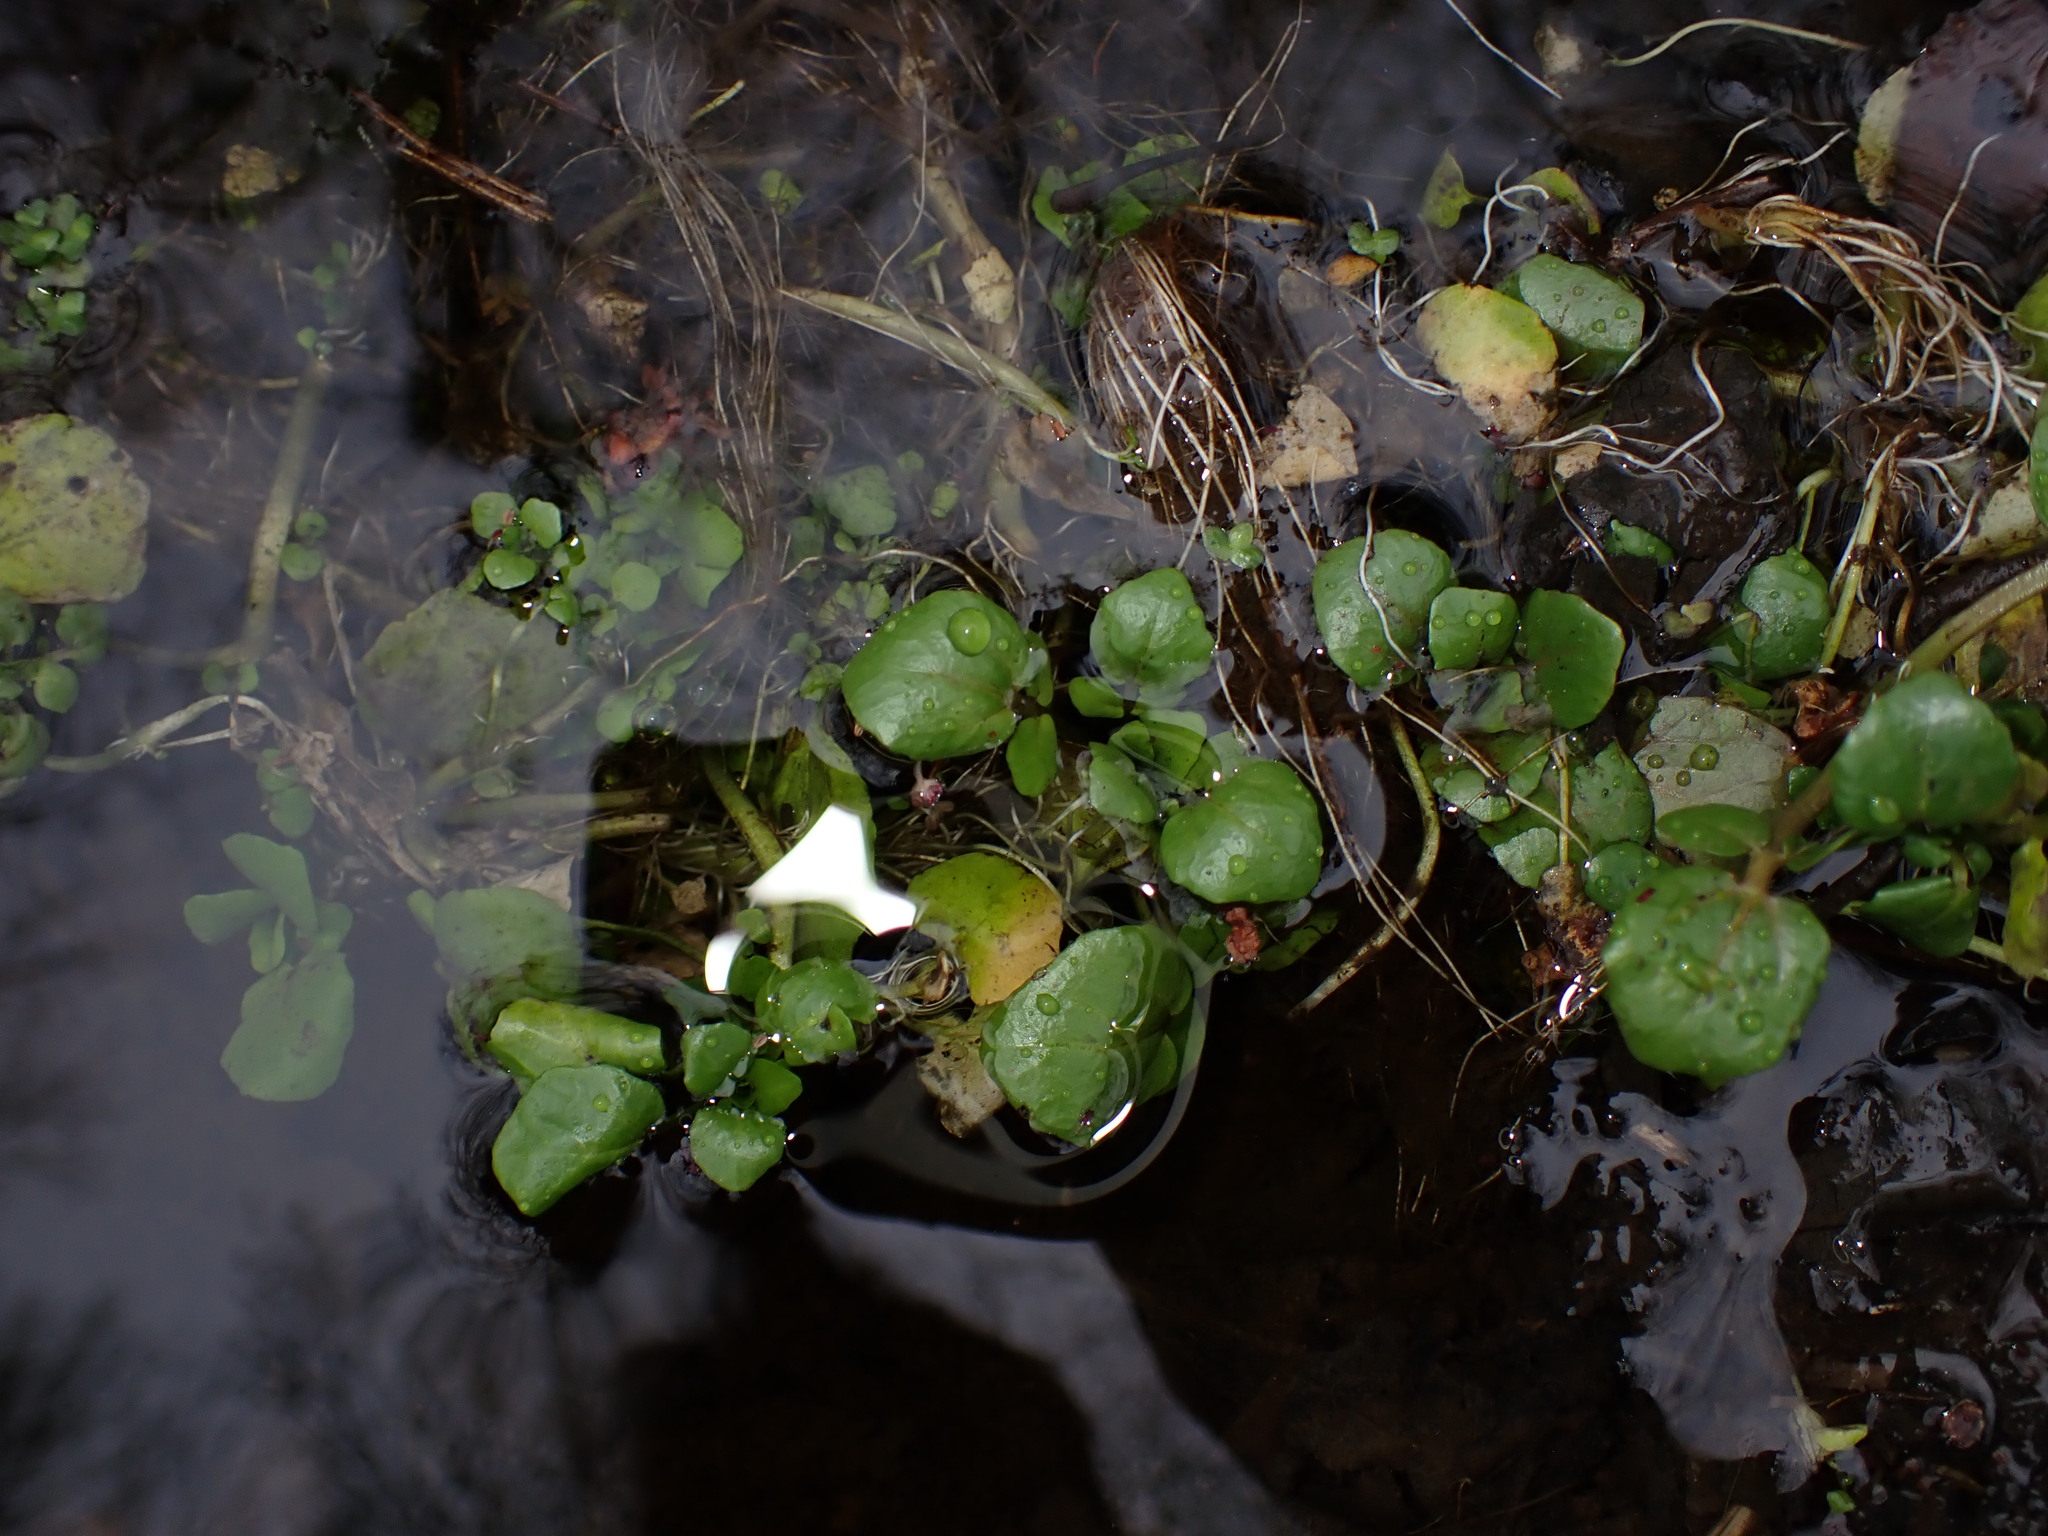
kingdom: Plantae
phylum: Tracheophyta
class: Magnoliopsida
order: Brassicales
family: Brassicaceae
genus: Nasturtium
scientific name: Nasturtium officinale
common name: Watercress
